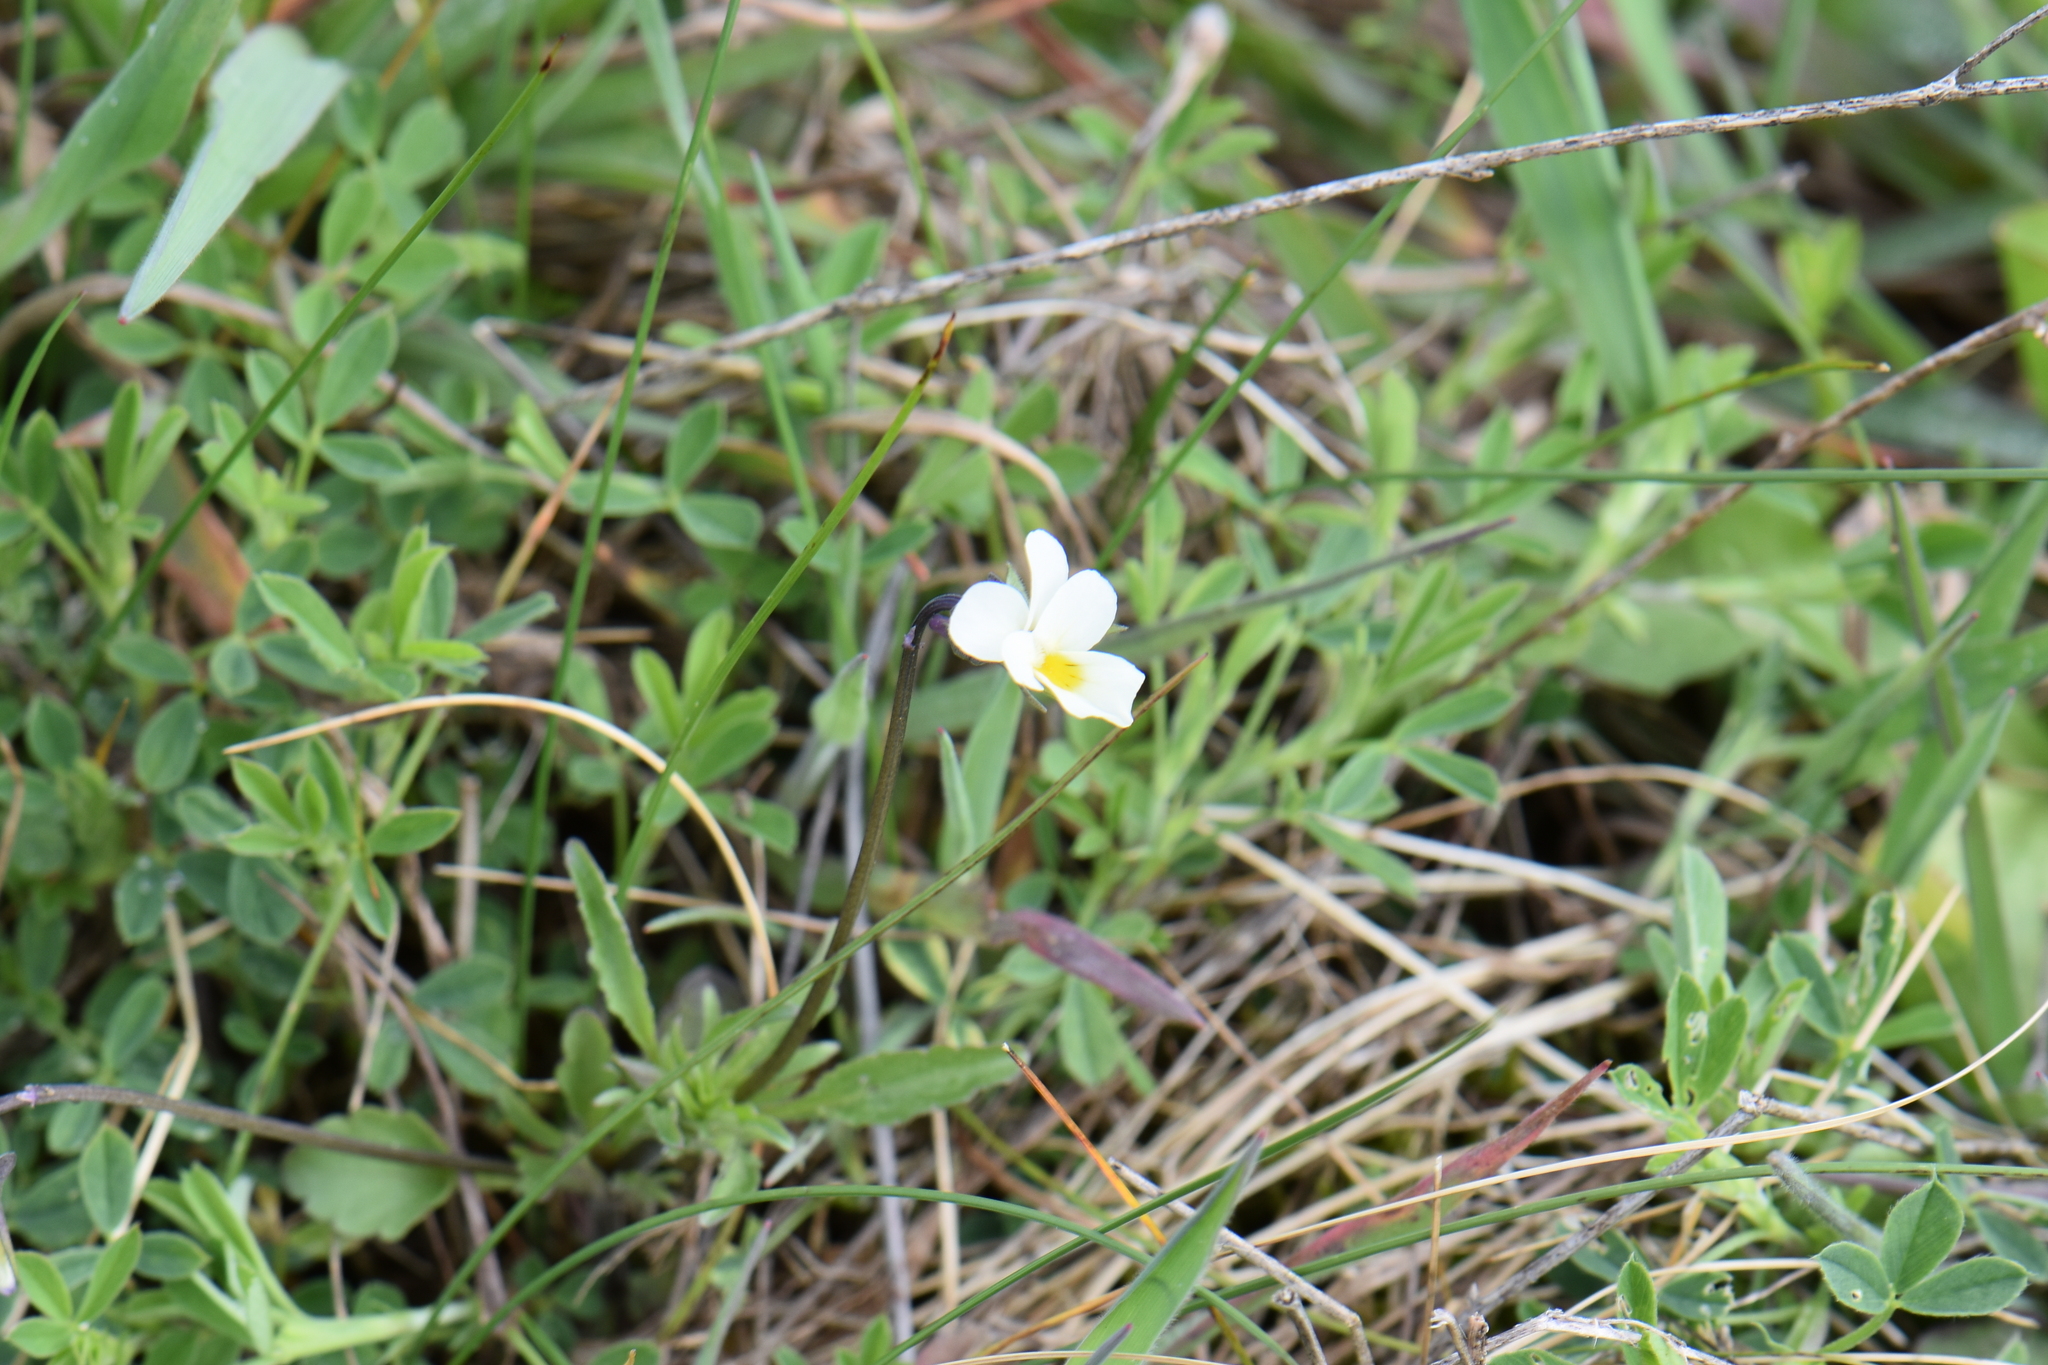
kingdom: Plantae
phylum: Tracheophyta
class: Magnoliopsida
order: Malpighiales
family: Violaceae
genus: Viola
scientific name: Viola arvensis
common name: Field pansy
